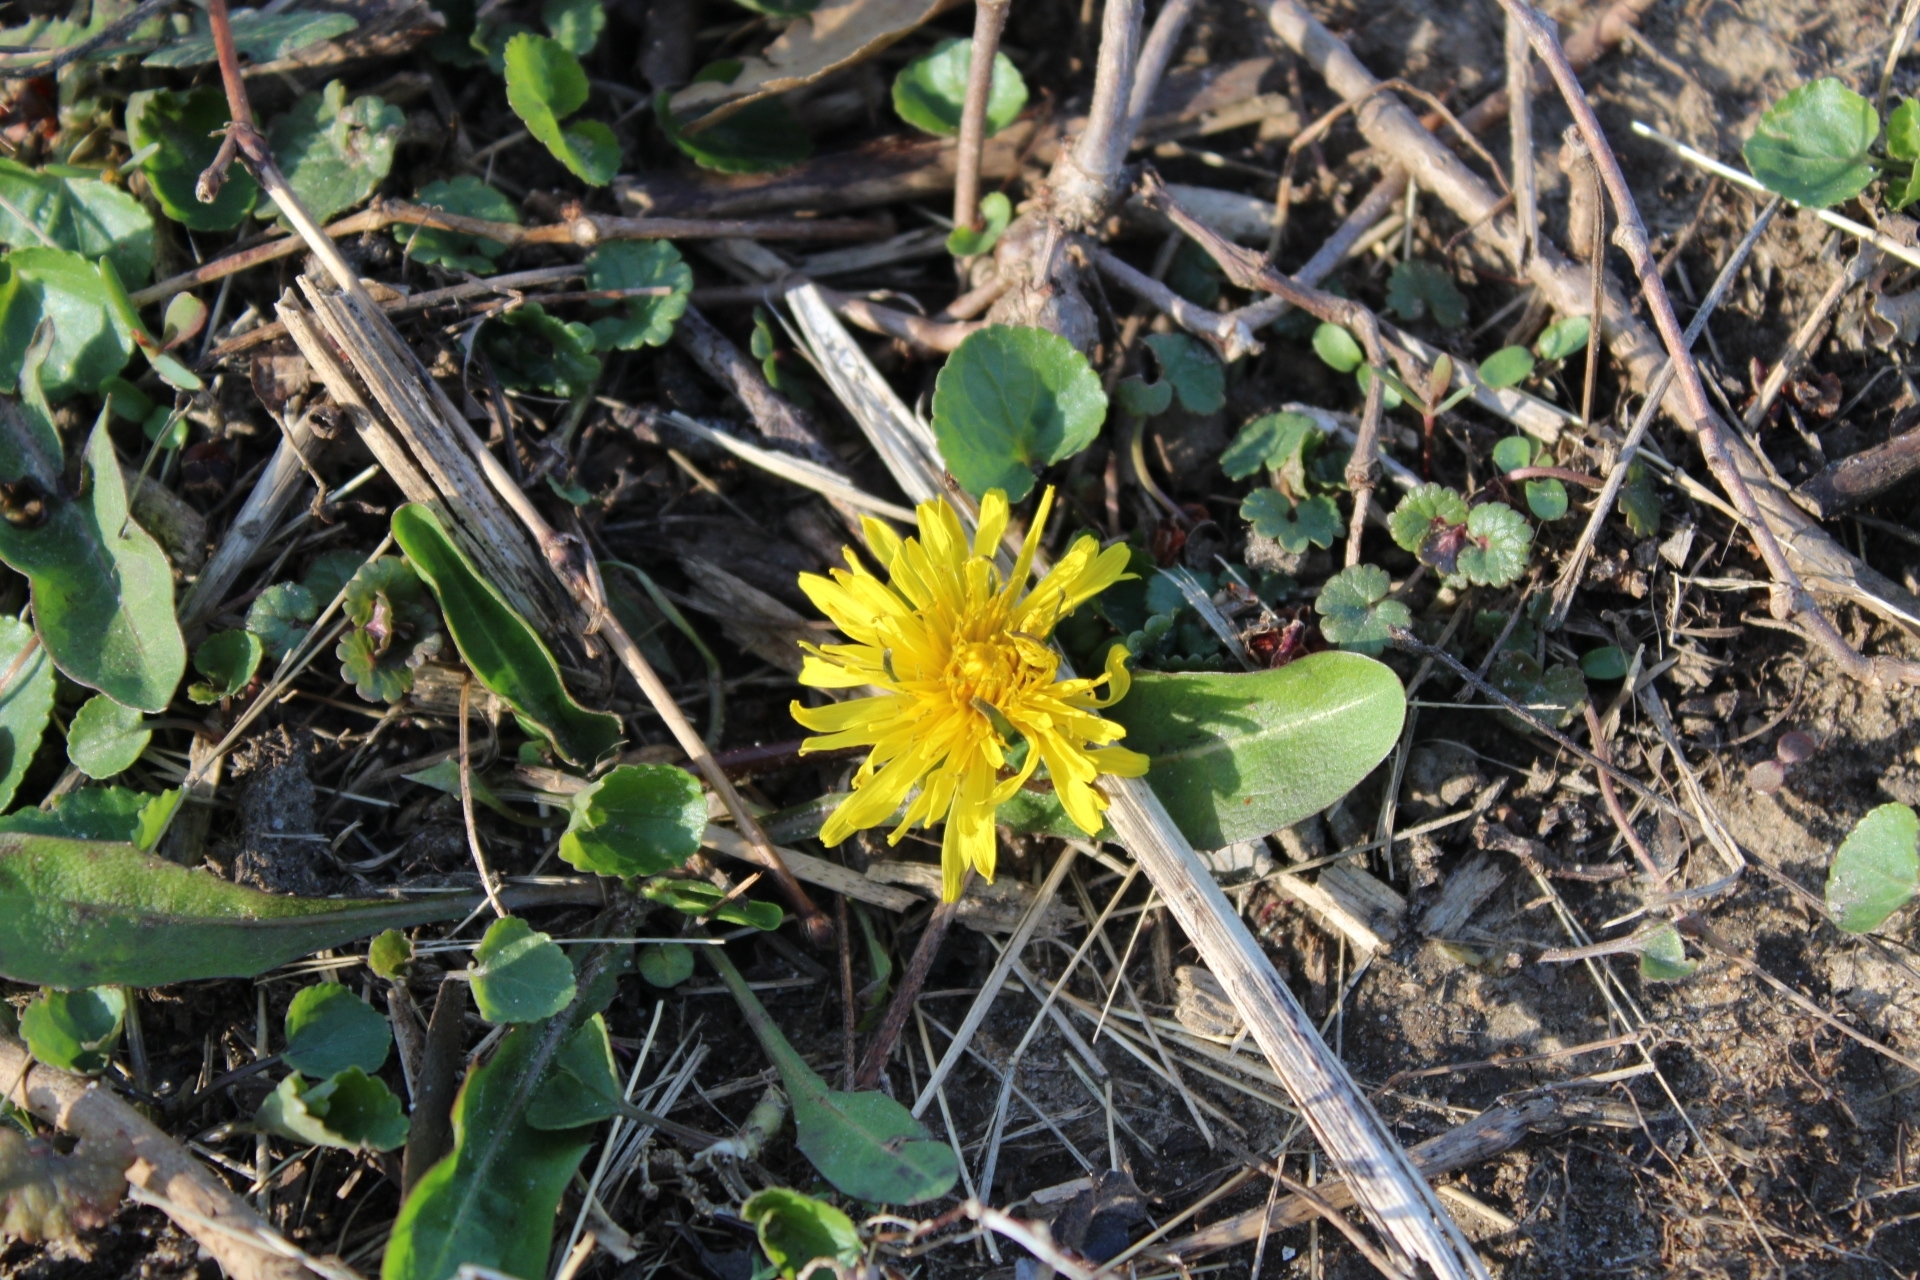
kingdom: Plantae
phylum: Tracheophyta
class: Magnoliopsida
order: Asterales
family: Asteraceae
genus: Taraxacum
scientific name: Taraxacum officinale
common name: Common dandelion
